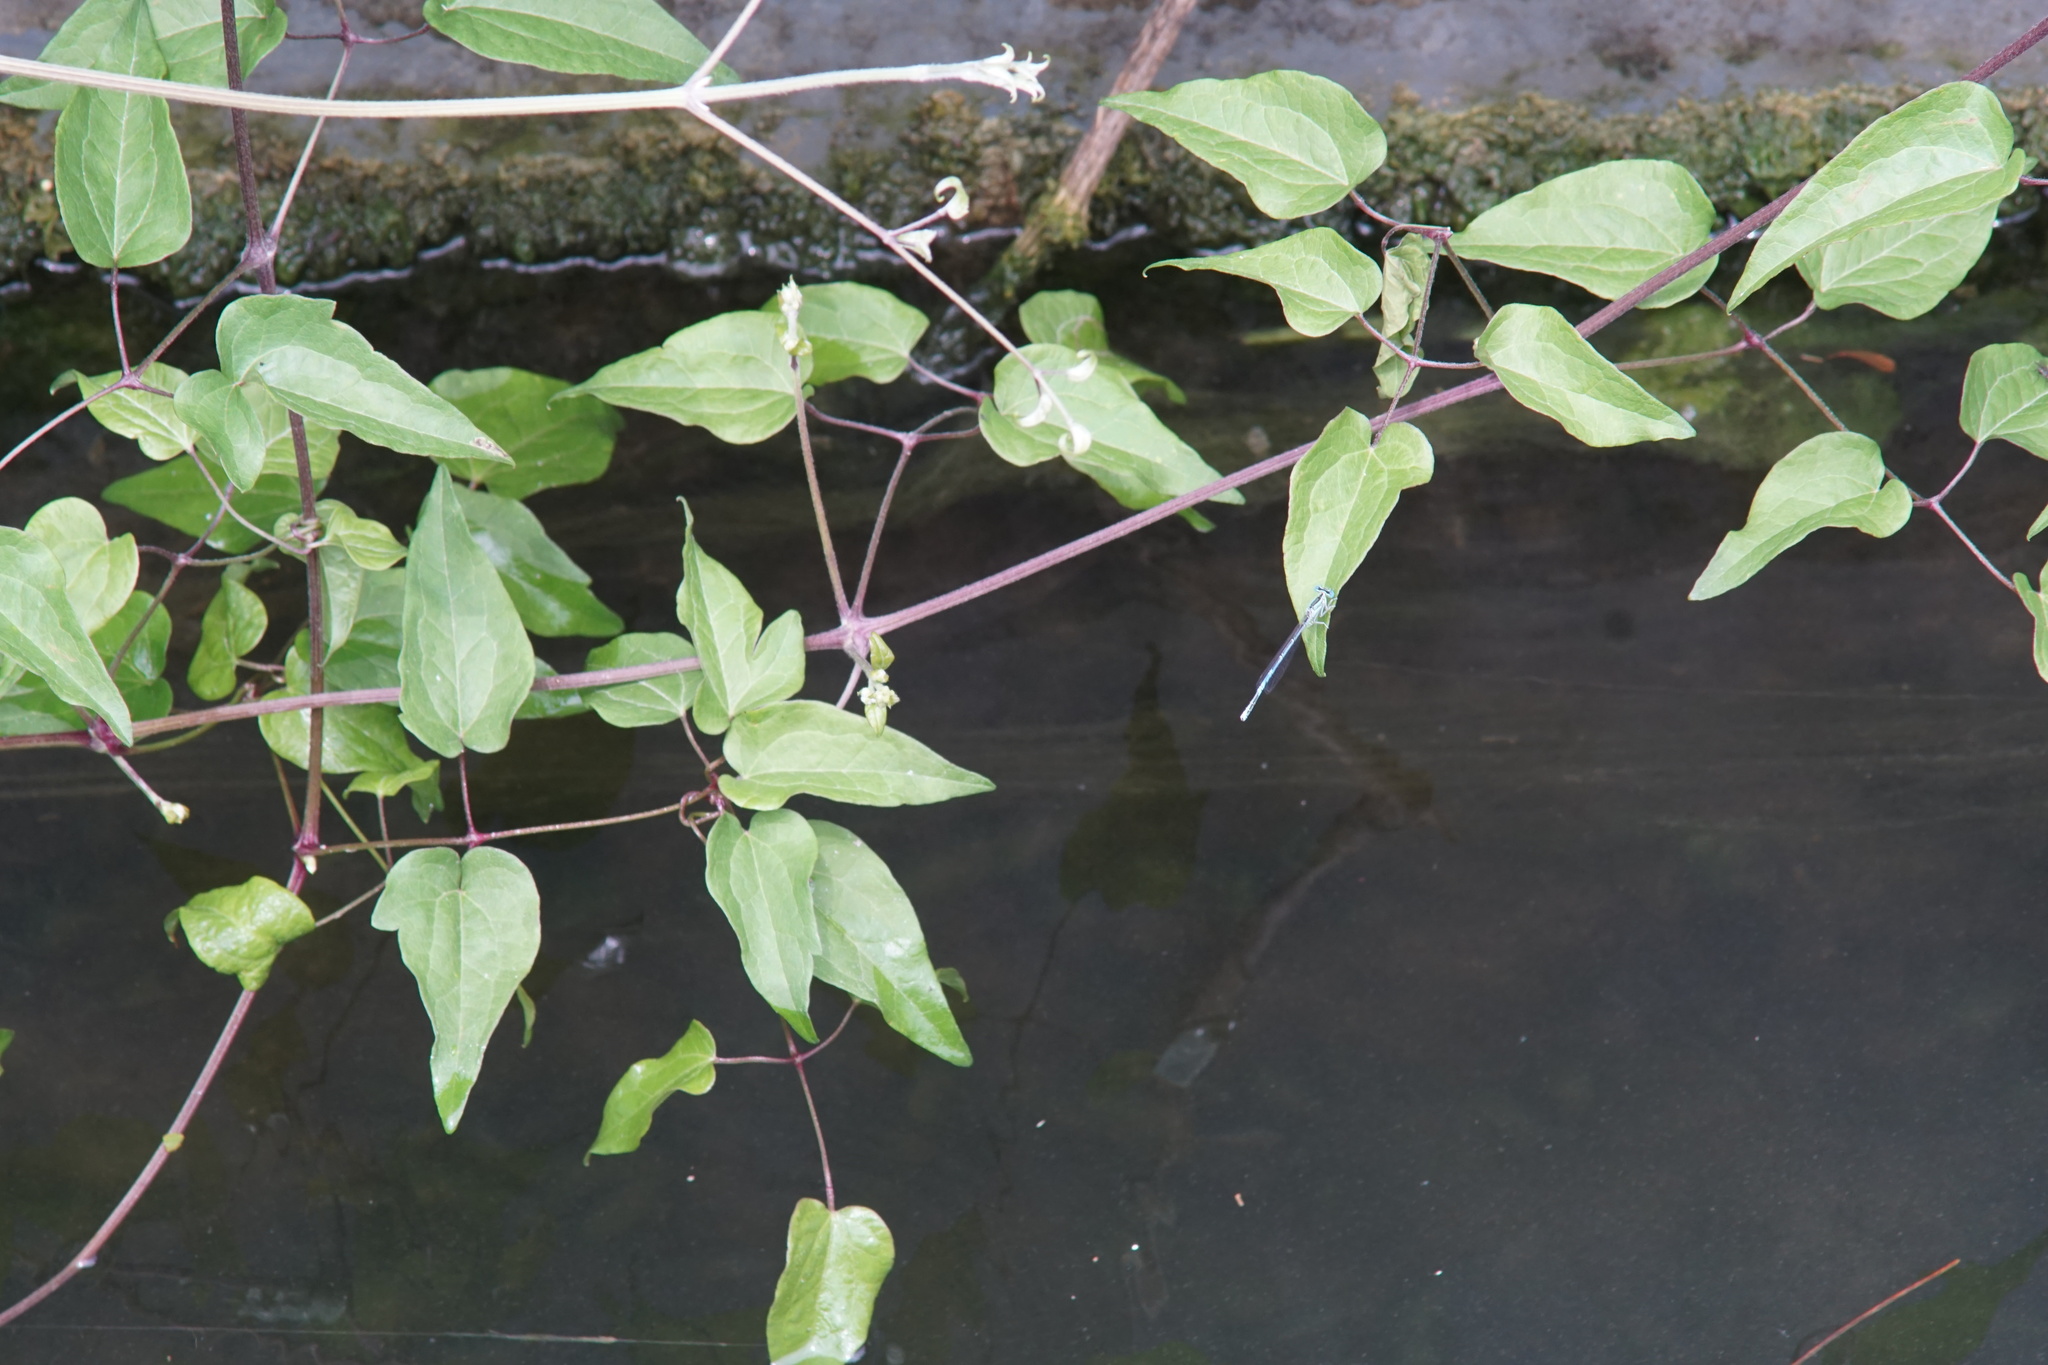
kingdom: Animalia
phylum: Arthropoda
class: Insecta
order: Odonata
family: Platycnemididae
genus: Platycnemis
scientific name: Platycnemis pennipes
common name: White-legged damselfly
